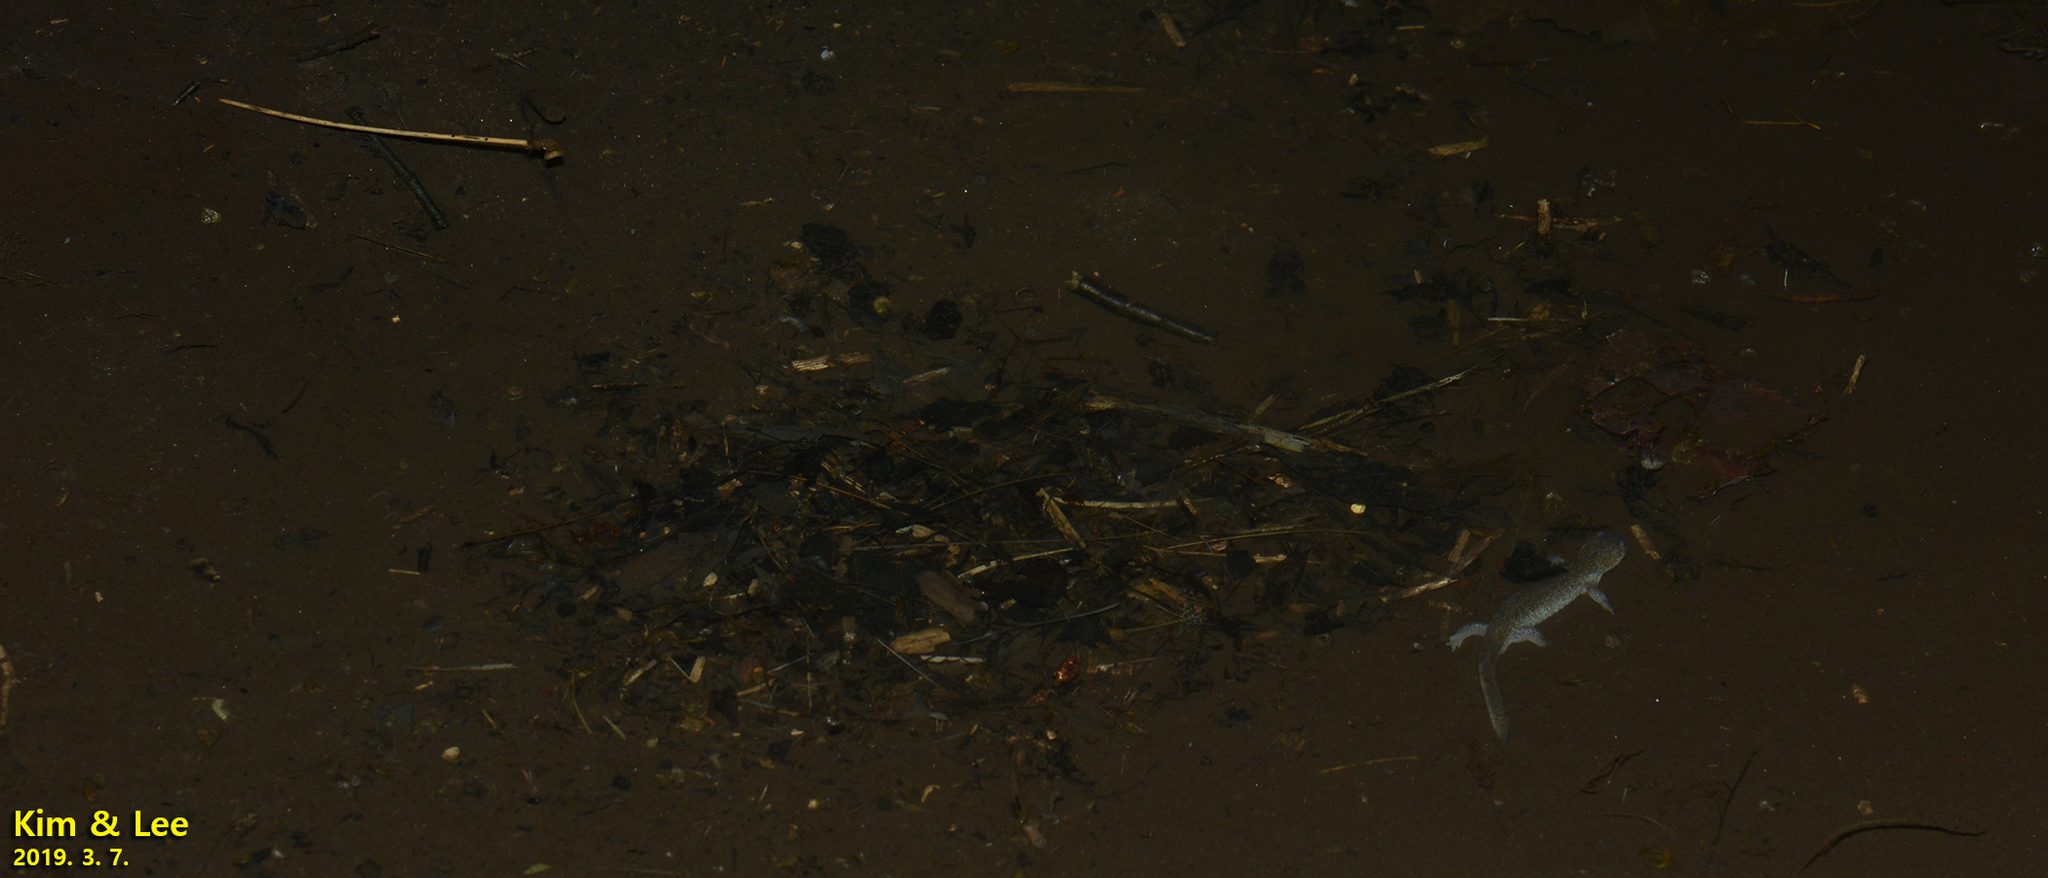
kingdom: Animalia
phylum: Chordata
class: Amphibia
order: Caudata
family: Hynobiidae
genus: Hynobius
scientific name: Hynobius leechii
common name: Gensan salamander
